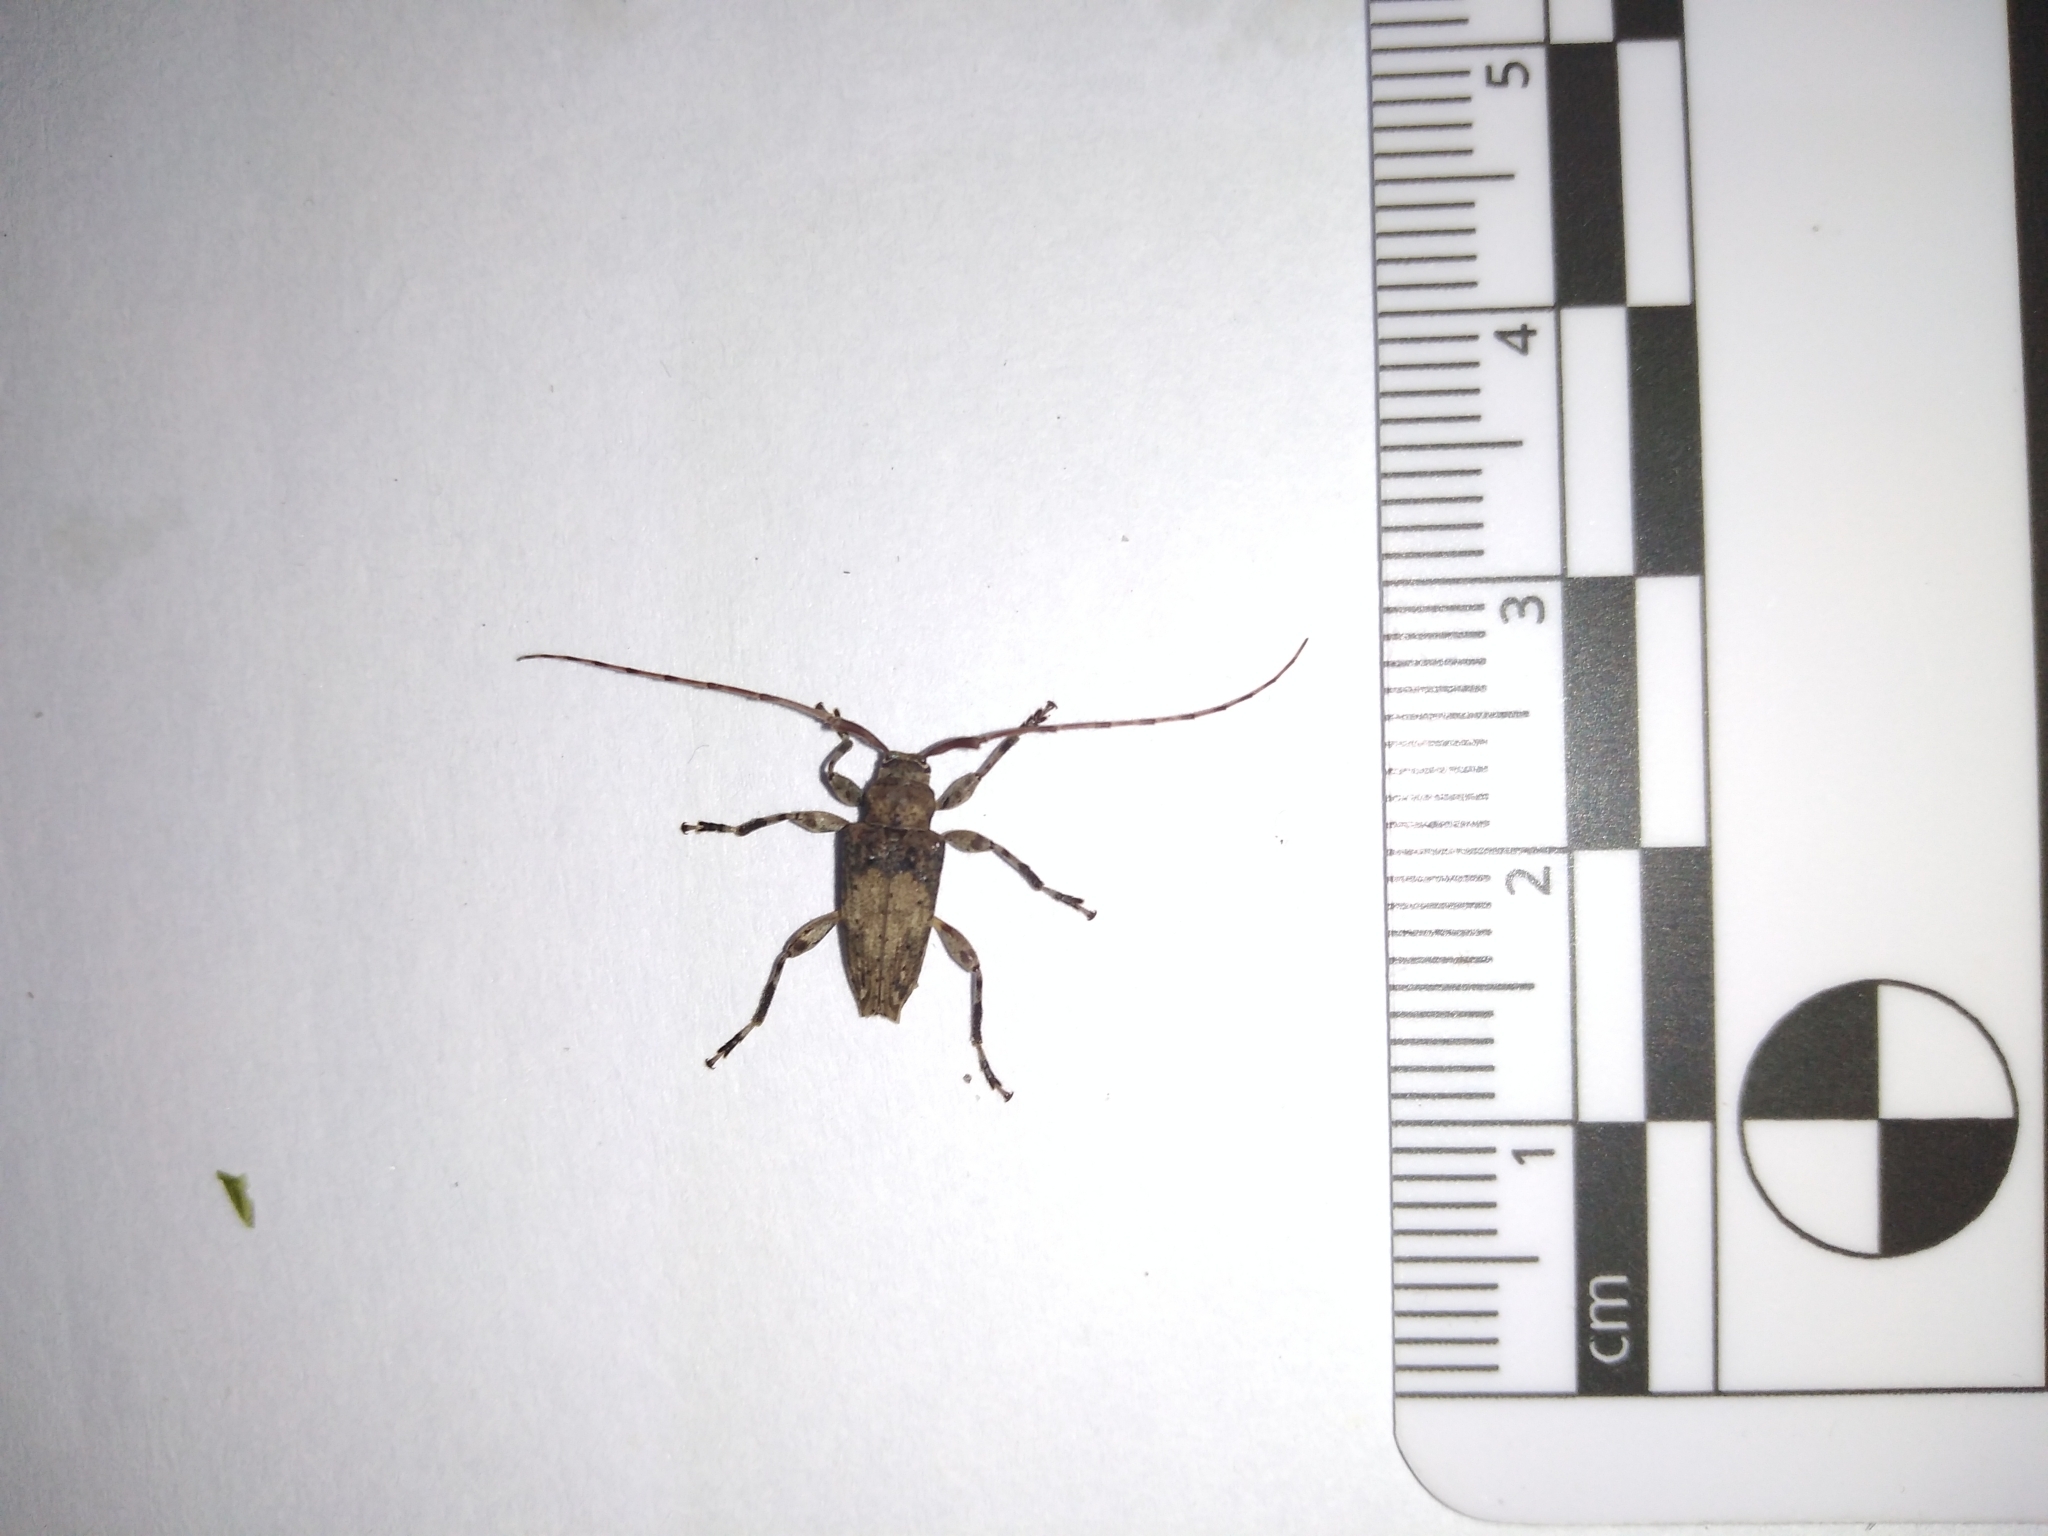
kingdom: Animalia
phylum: Arthropoda
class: Insecta
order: Coleoptera
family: Cerambycidae
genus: Nealcidion
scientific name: Nealcidion bicristatum
